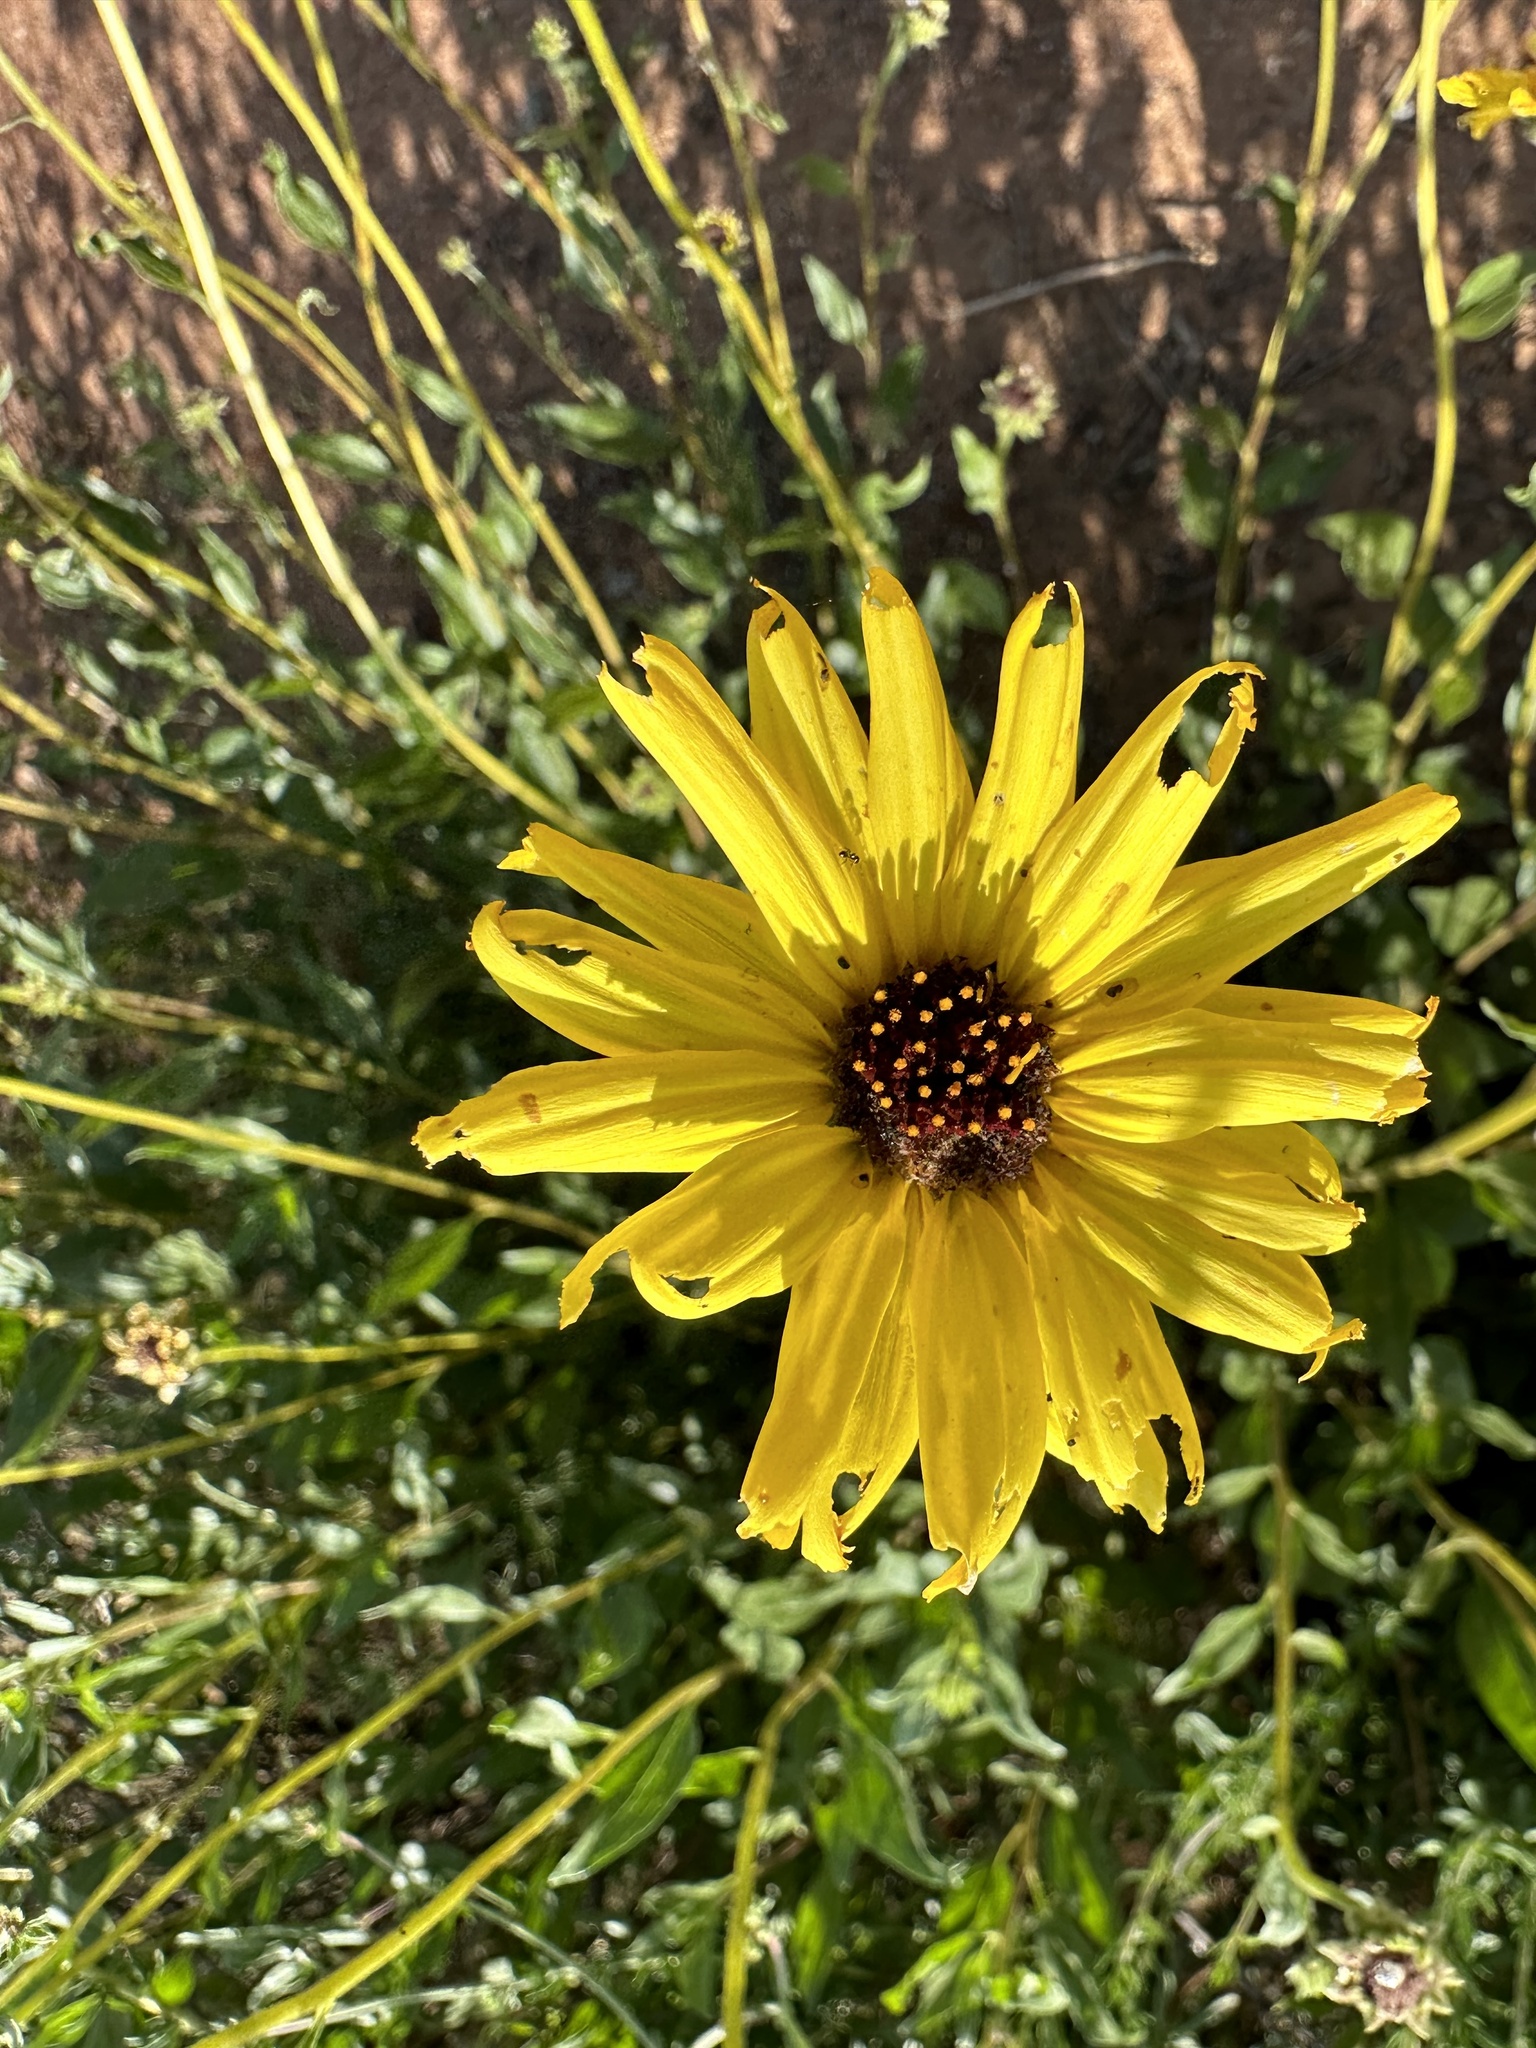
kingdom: Plantae
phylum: Tracheophyta
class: Magnoliopsida
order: Asterales
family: Asteraceae
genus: Encelia
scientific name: Encelia californica
